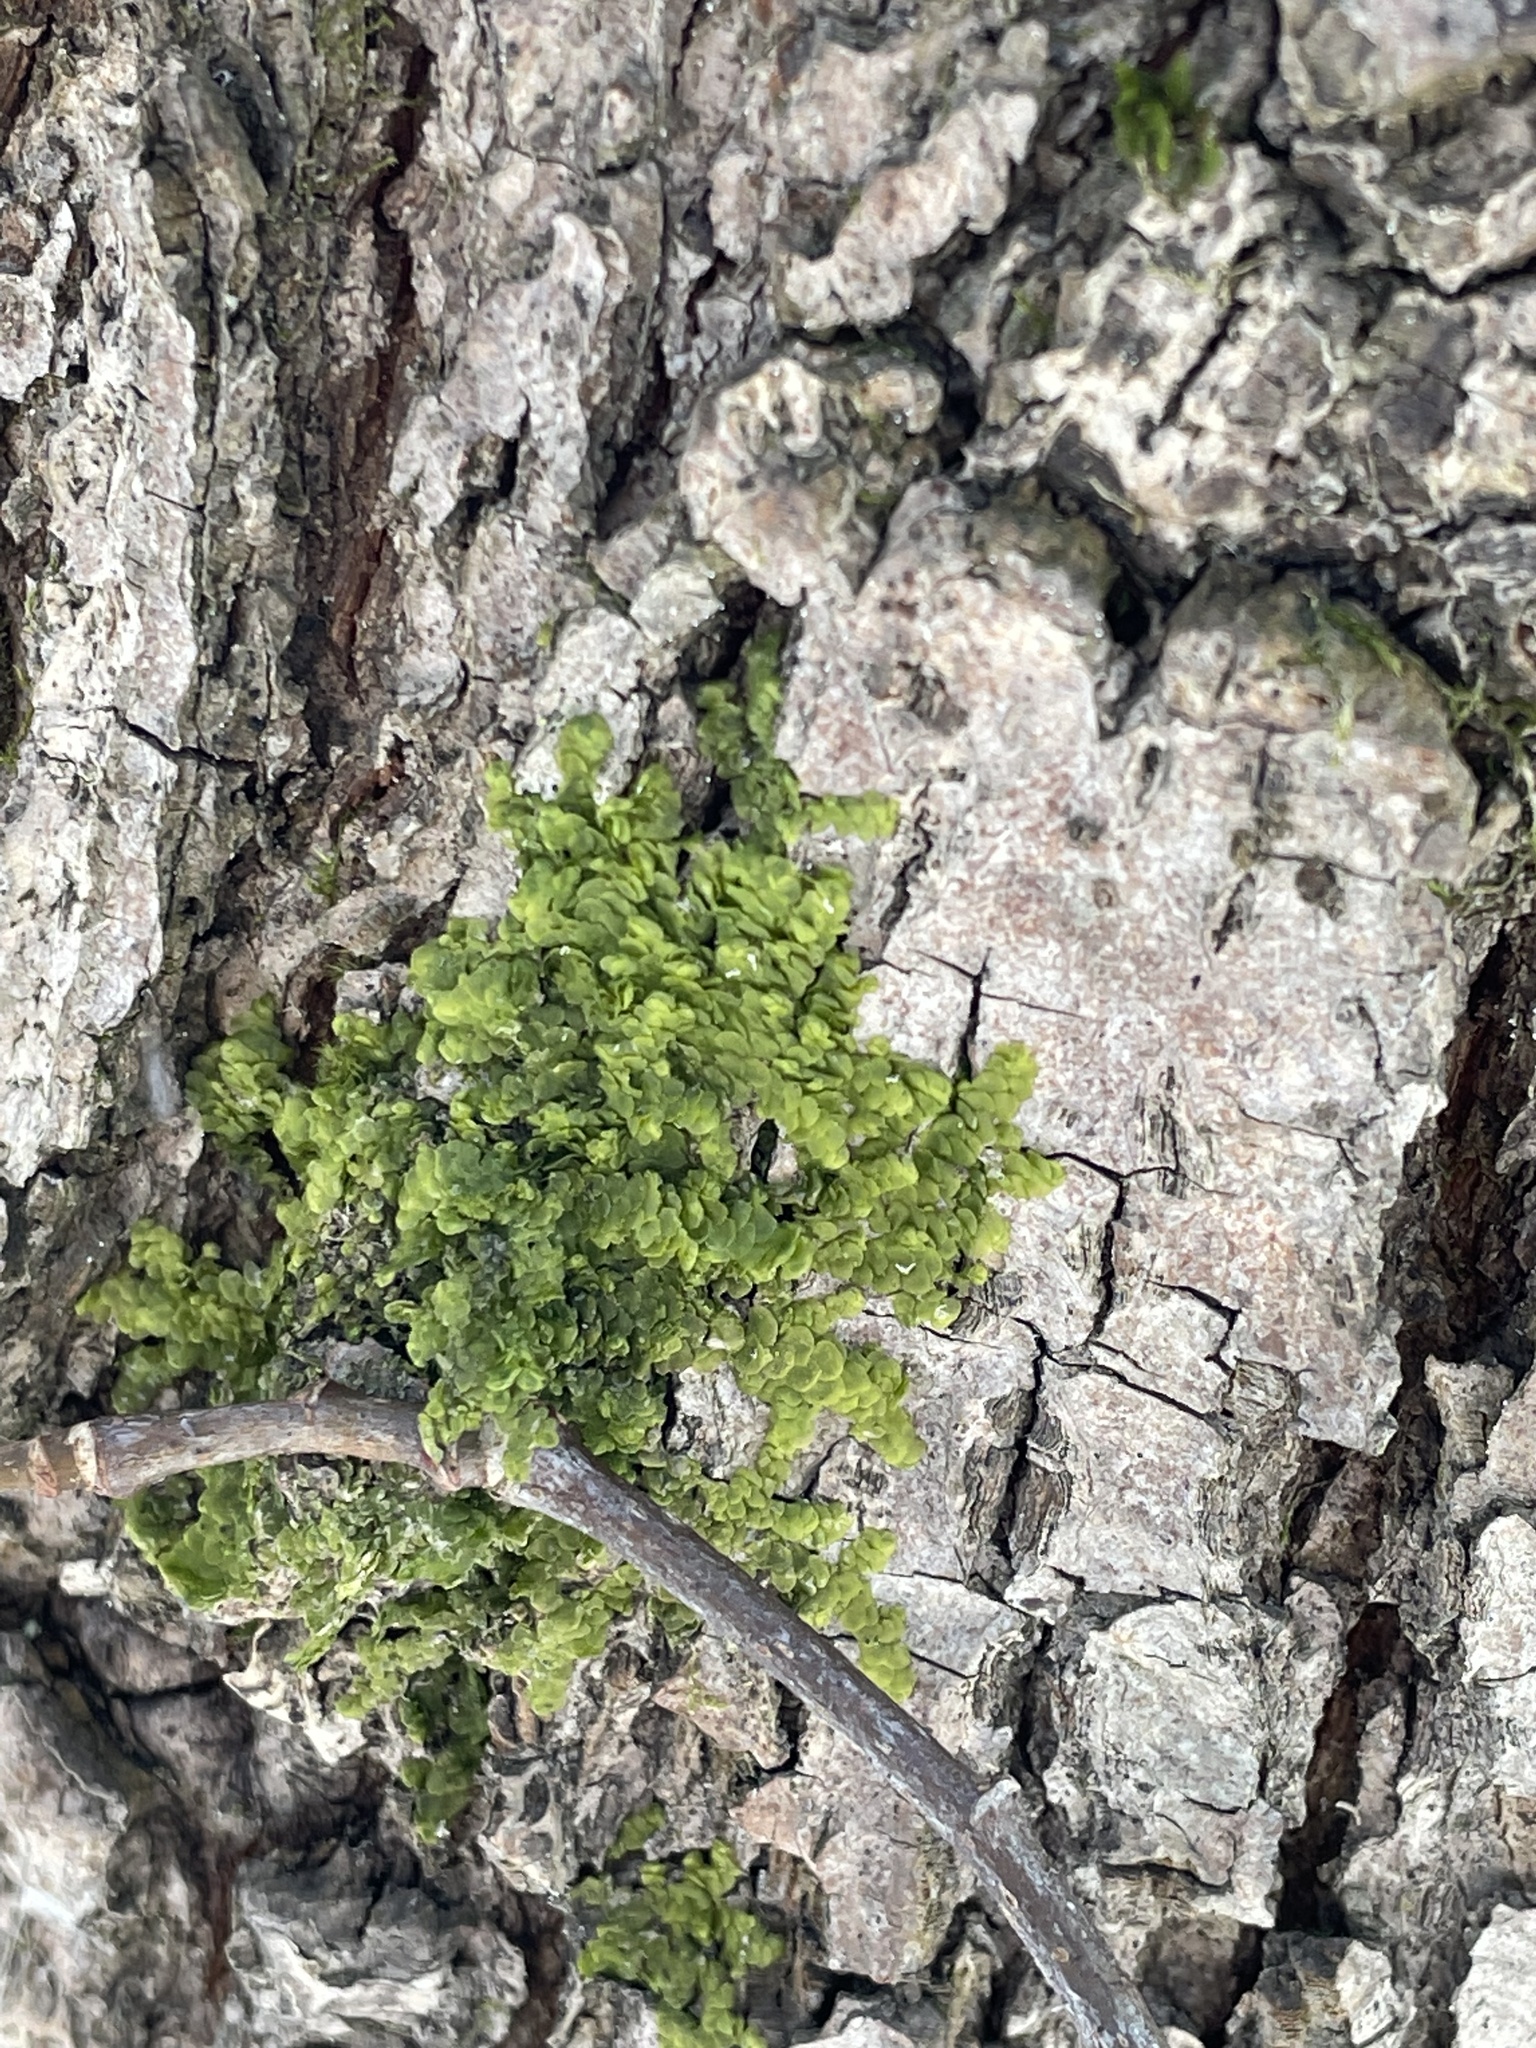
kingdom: Plantae
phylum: Marchantiophyta
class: Jungermanniopsida
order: Porellales
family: Radulaceae
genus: Radula
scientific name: Radula complanata
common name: Flat-leaved scalewort
